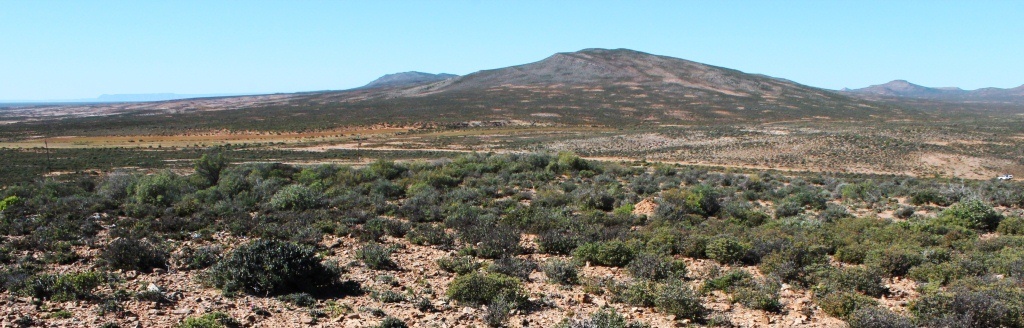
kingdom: Animalia
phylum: Arthropoda
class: Insecta
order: Blattodea
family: Hodotermitidae
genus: Microhodotermes
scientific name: Microhodotermes viator
